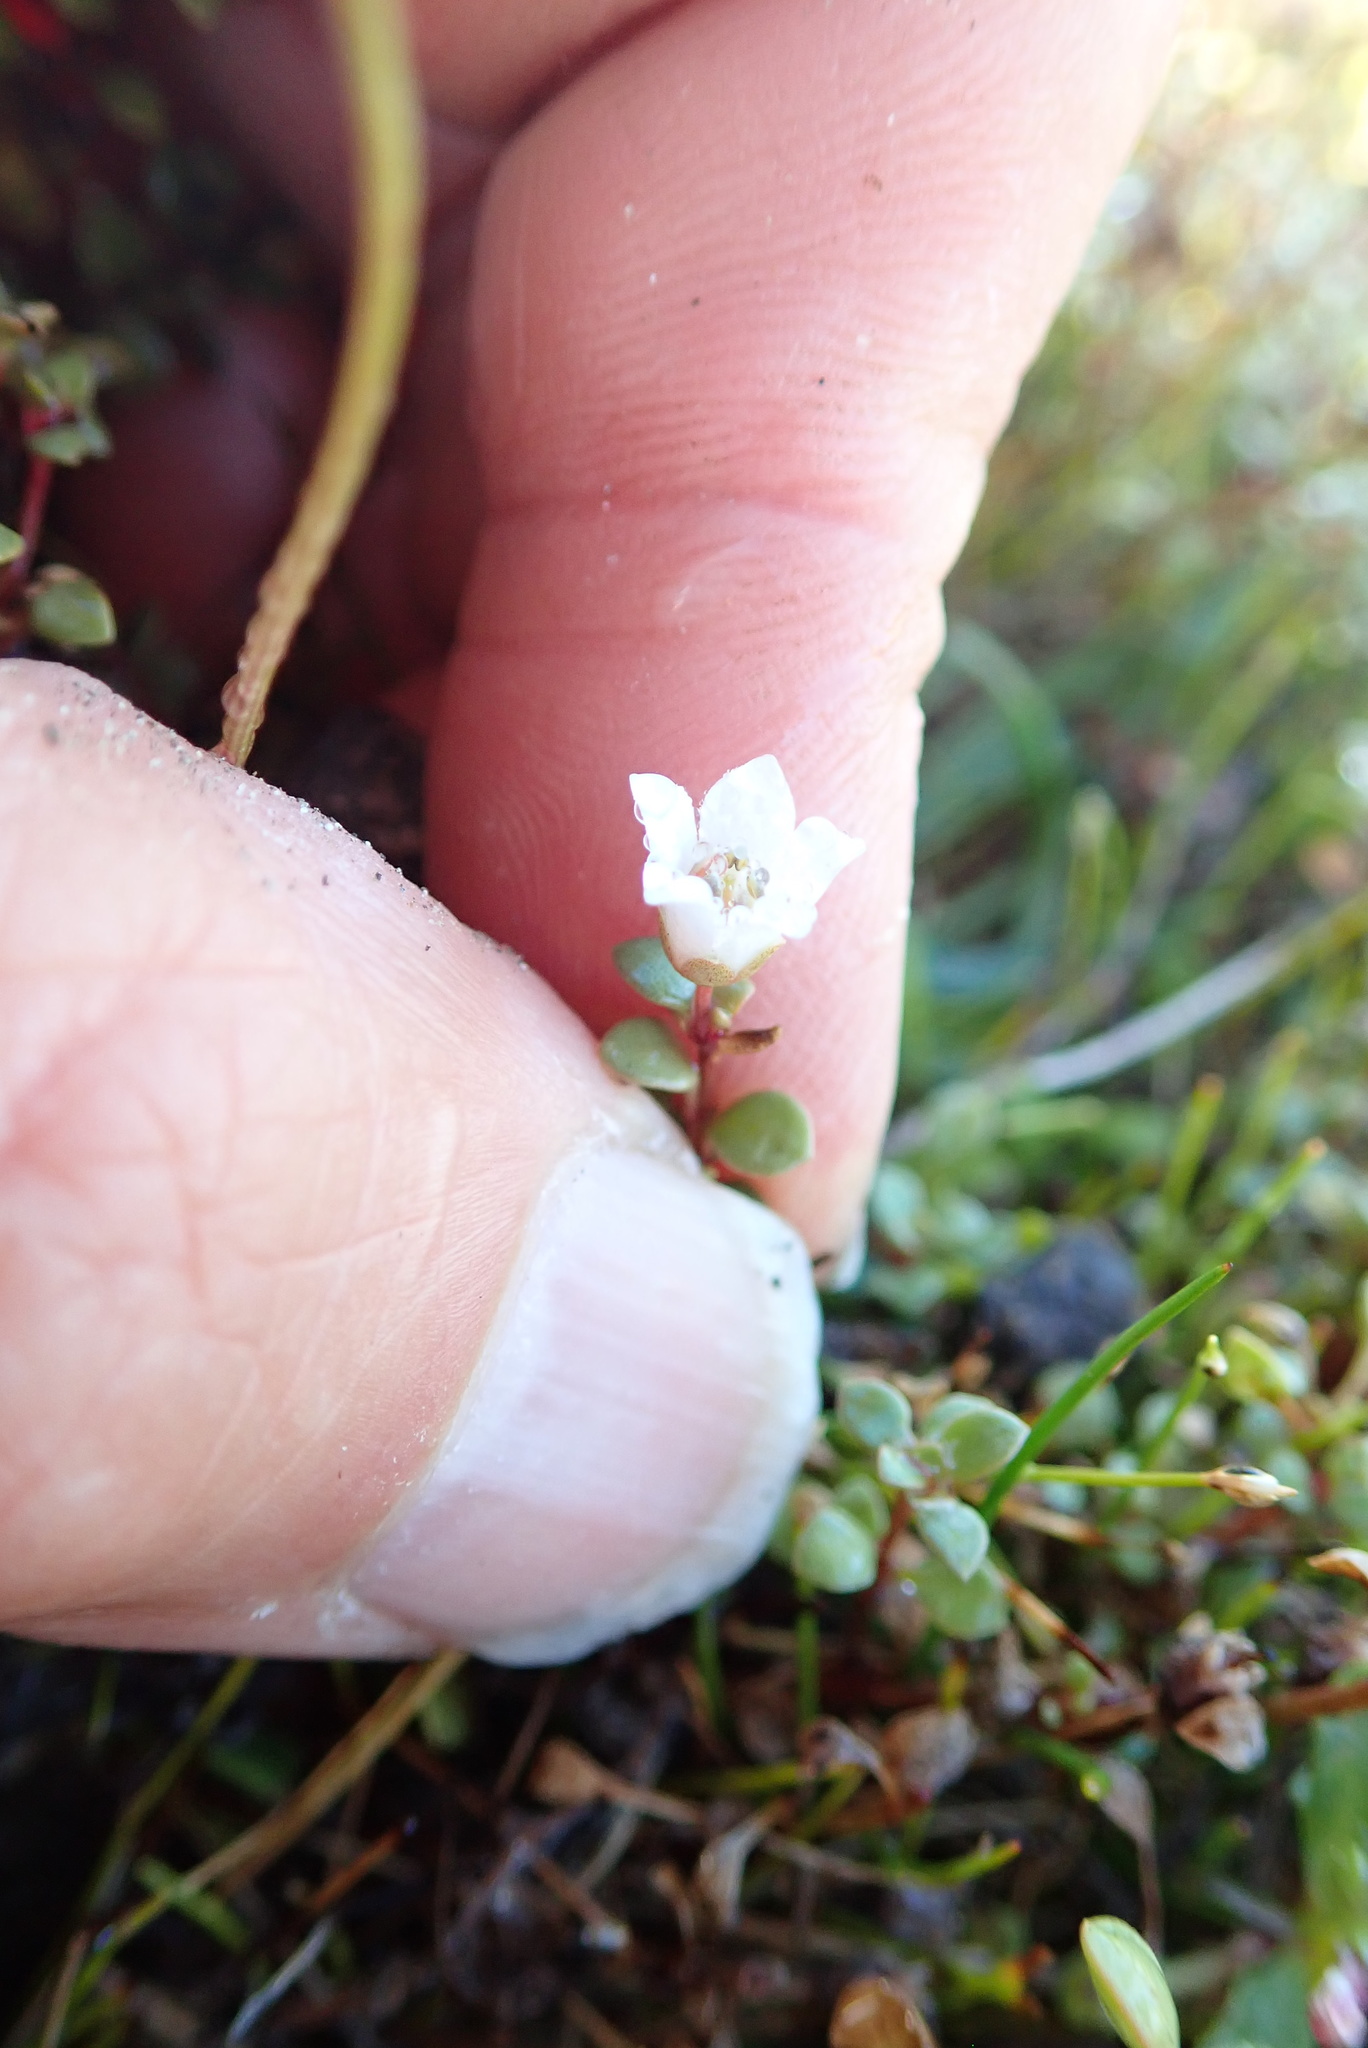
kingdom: Plantae
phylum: Tracheophyta
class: Magnoliopsida
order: Ericales
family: Primulaceae
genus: Samolus
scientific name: Samolus repens
